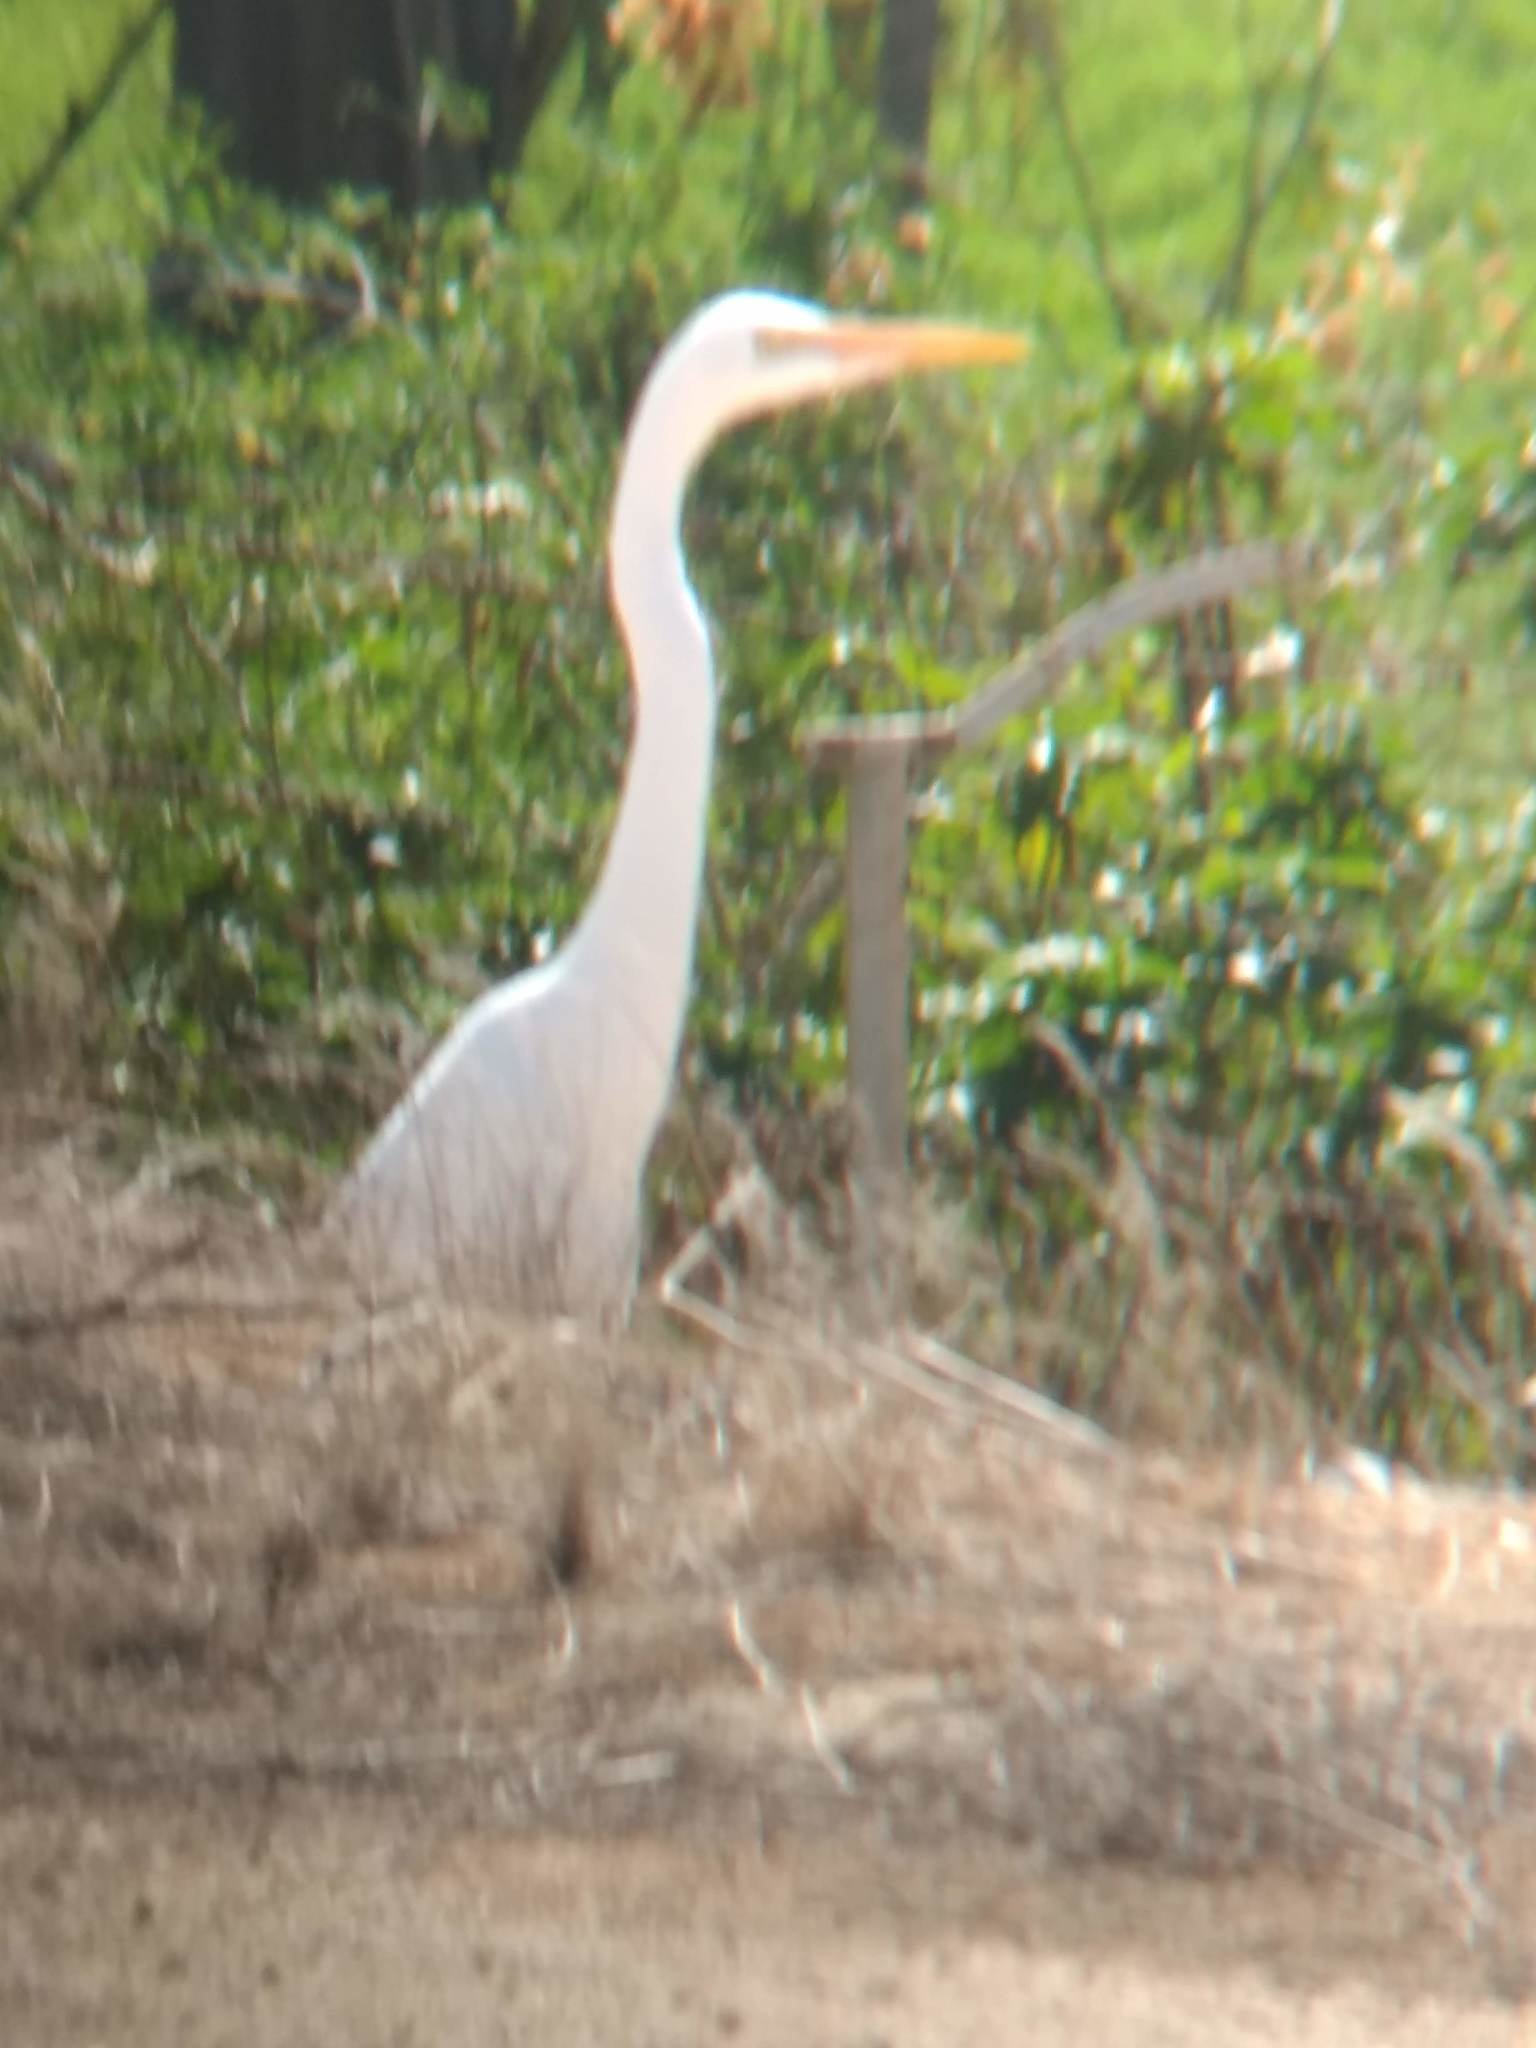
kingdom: Animalia
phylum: Chordata
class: Aves
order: Pelecaniformes
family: Ardeidae
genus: Ardea
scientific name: Ardea alba
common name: Great egret
